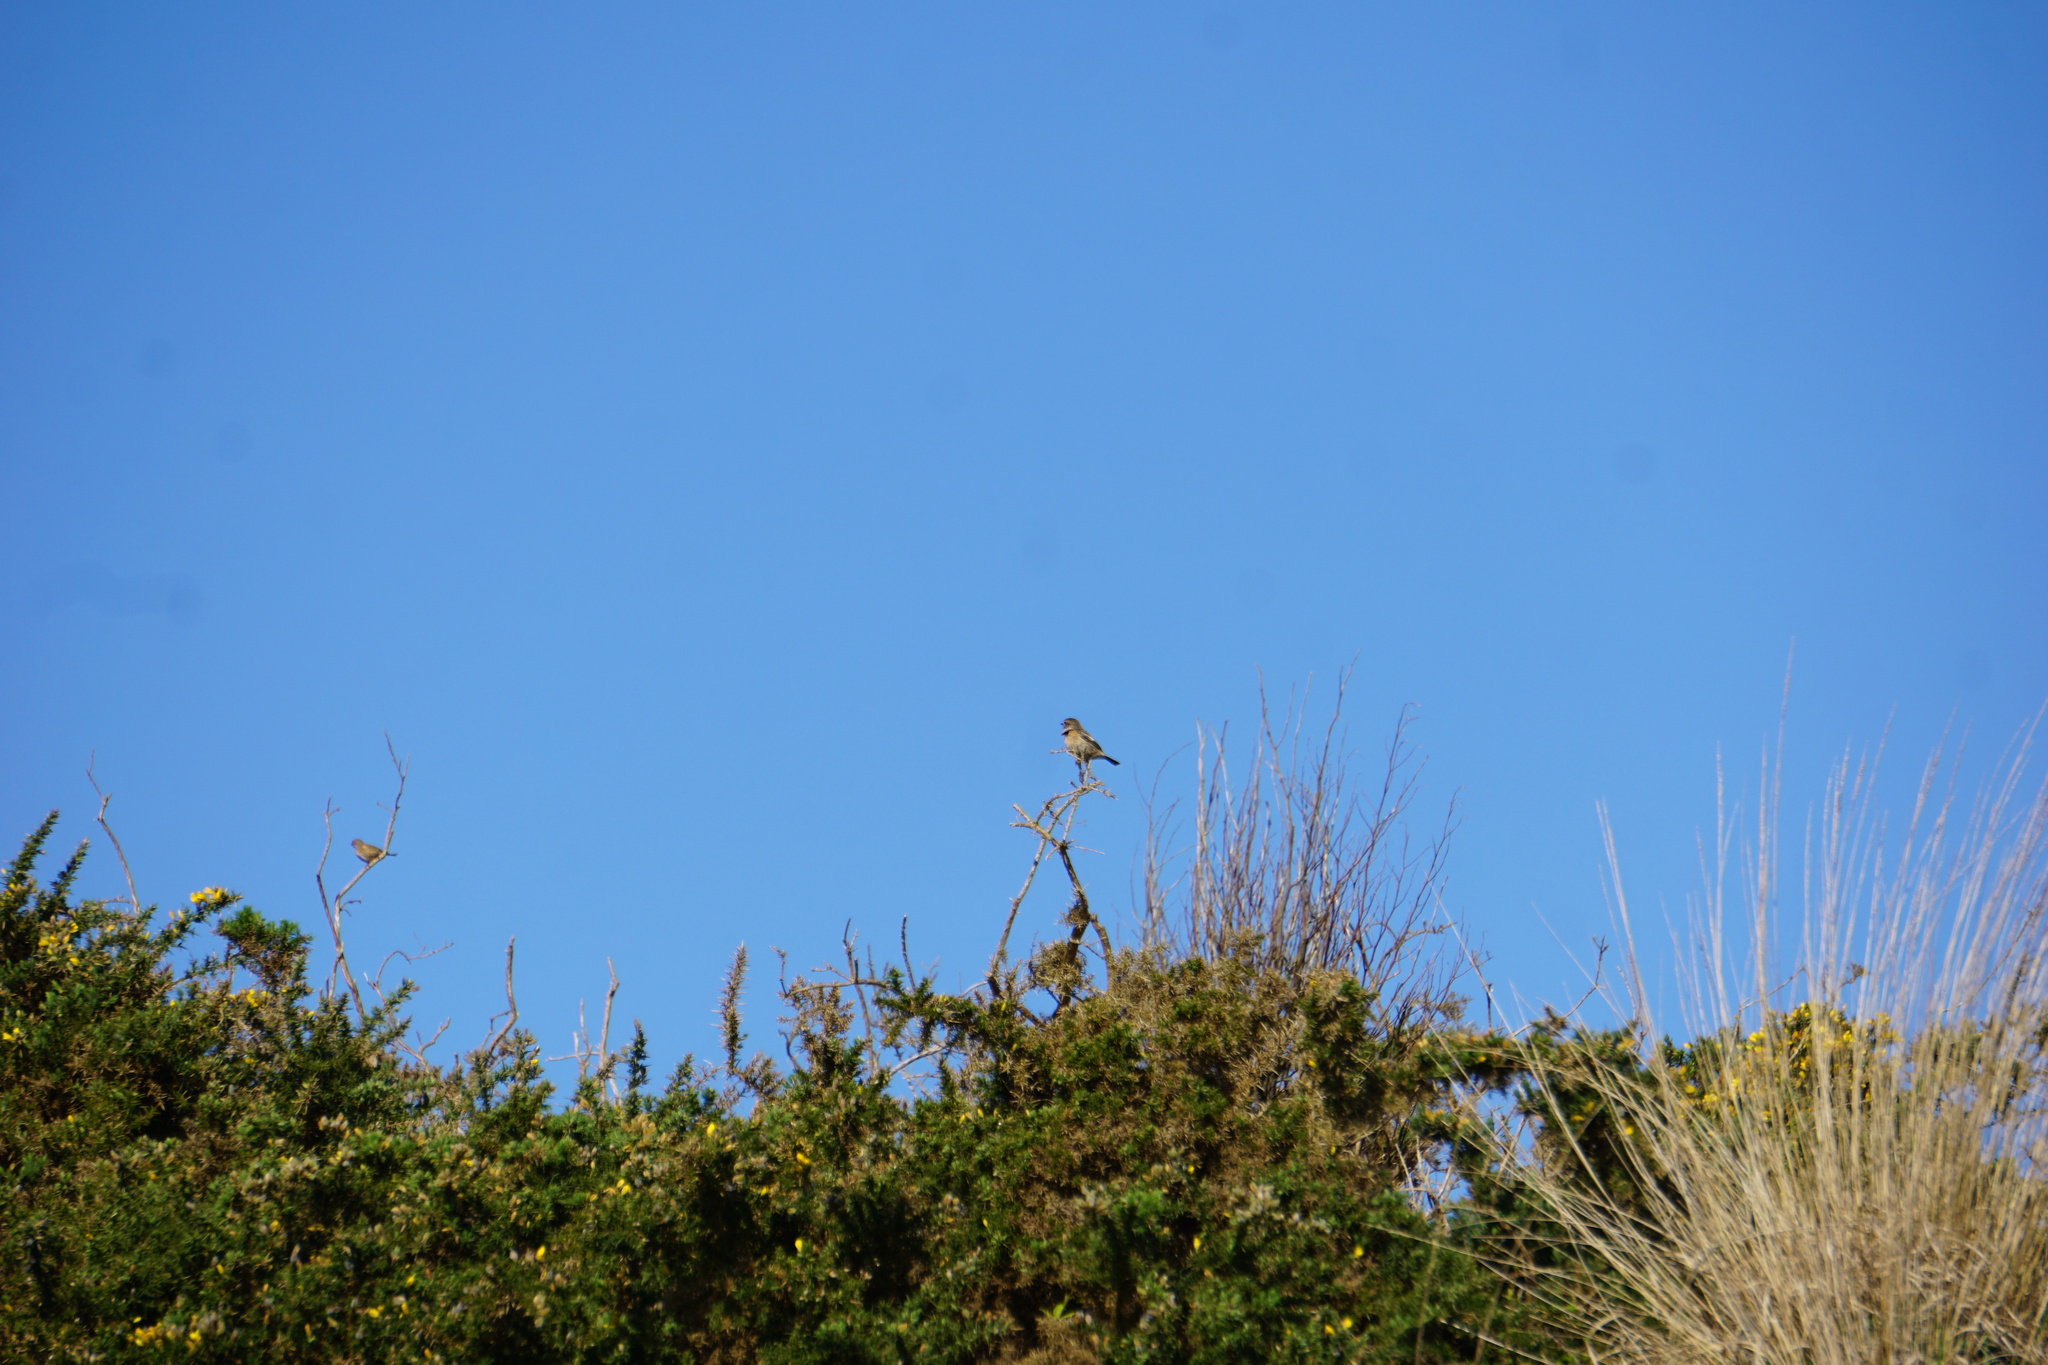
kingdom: Animalia
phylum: Chordata
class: Aves
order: Passeriformes
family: Muscicapidae
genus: Saxicola
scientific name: Saxicola rubicola
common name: European stonechat
